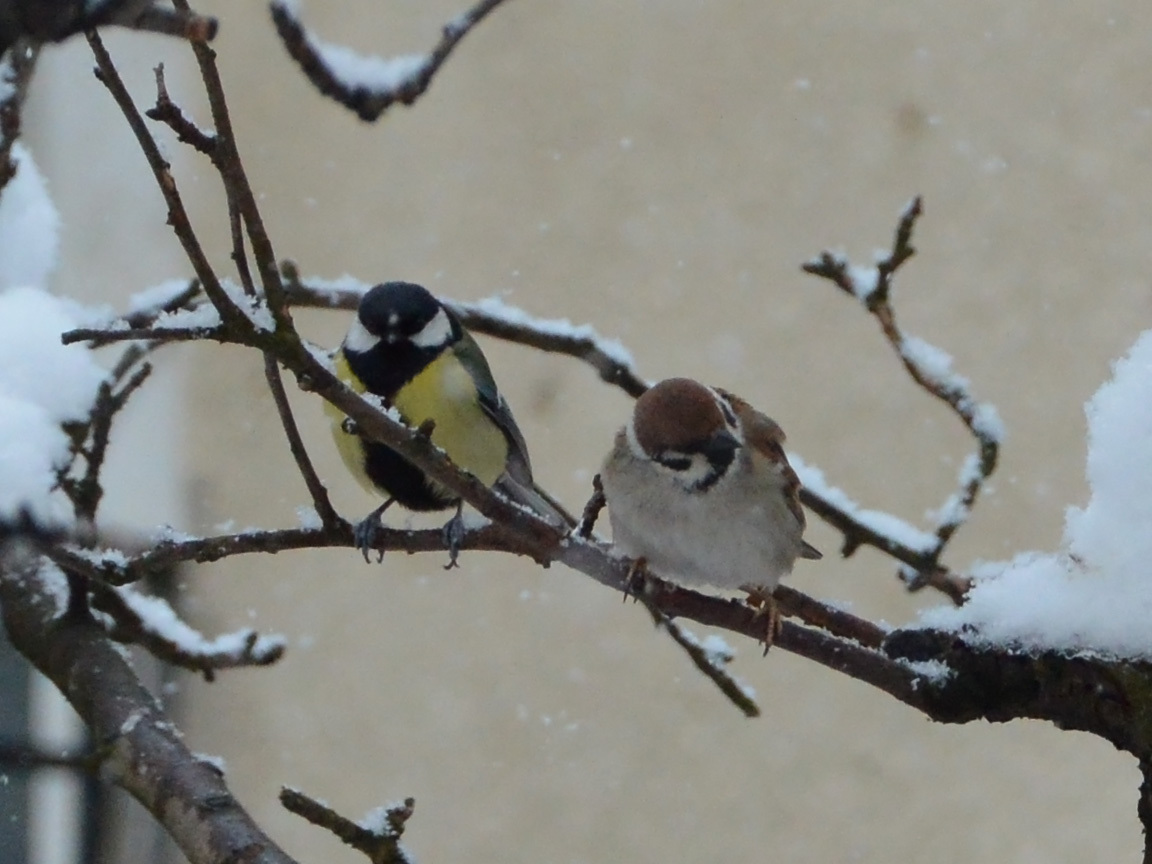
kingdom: Animalia
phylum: Chordata
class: Aves
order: Passeriformes
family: Paridae
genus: Parus
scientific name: Parus major
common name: Great tit
